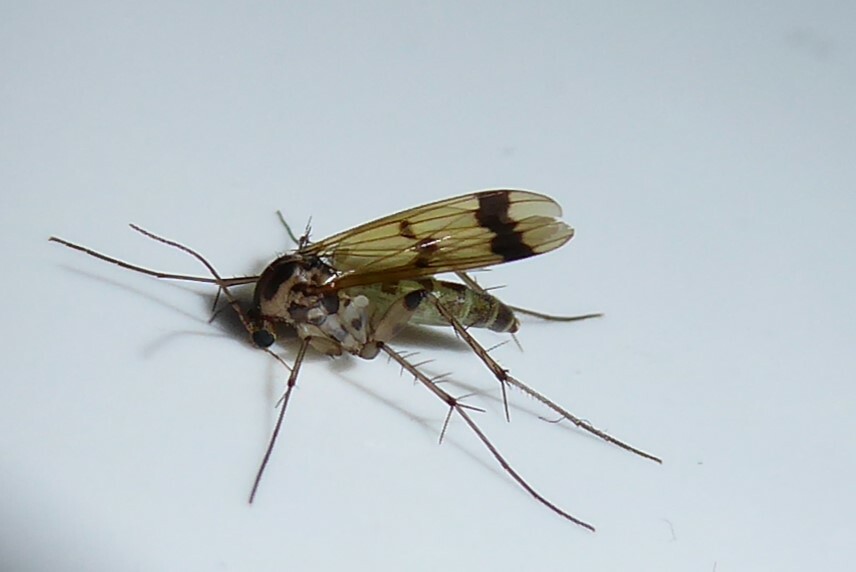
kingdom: Animalia
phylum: Arthropoda
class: Insecta
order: Diptera
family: Mycetophilidae
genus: Mycetophila
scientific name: Mycetophila latifascia
